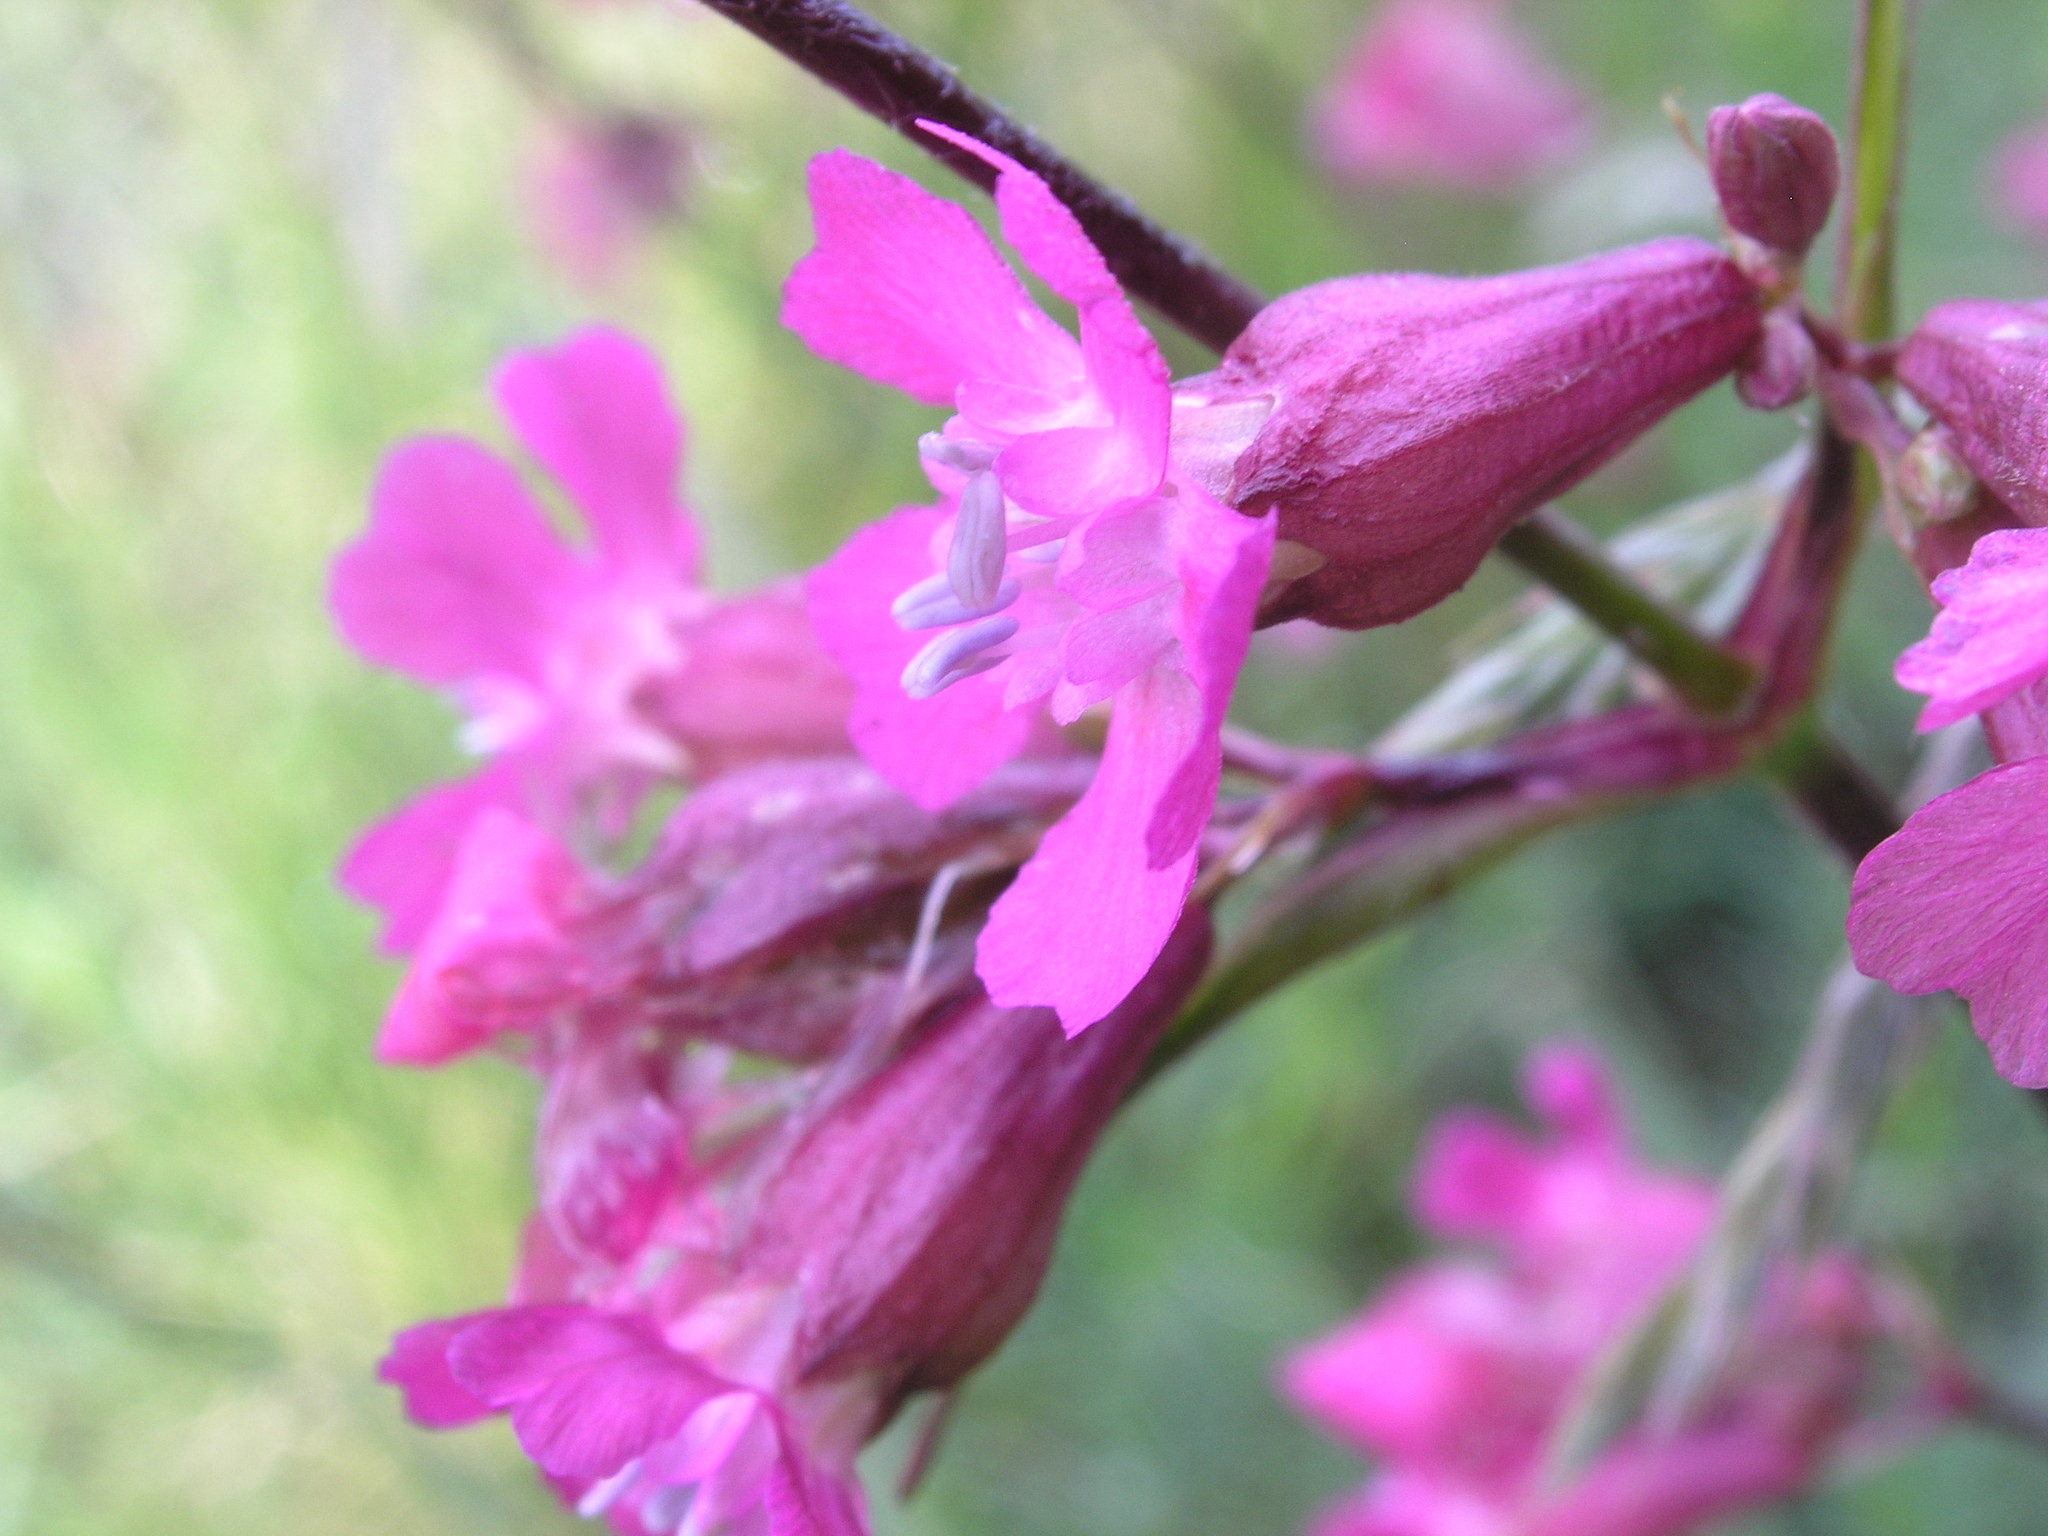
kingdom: Plantae
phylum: Tracheophyta
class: Magnoliopsida
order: Caryophyllales
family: Caryophyllaceae
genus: Viscaria
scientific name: Viscaria vulgaris
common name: Clammy campion
